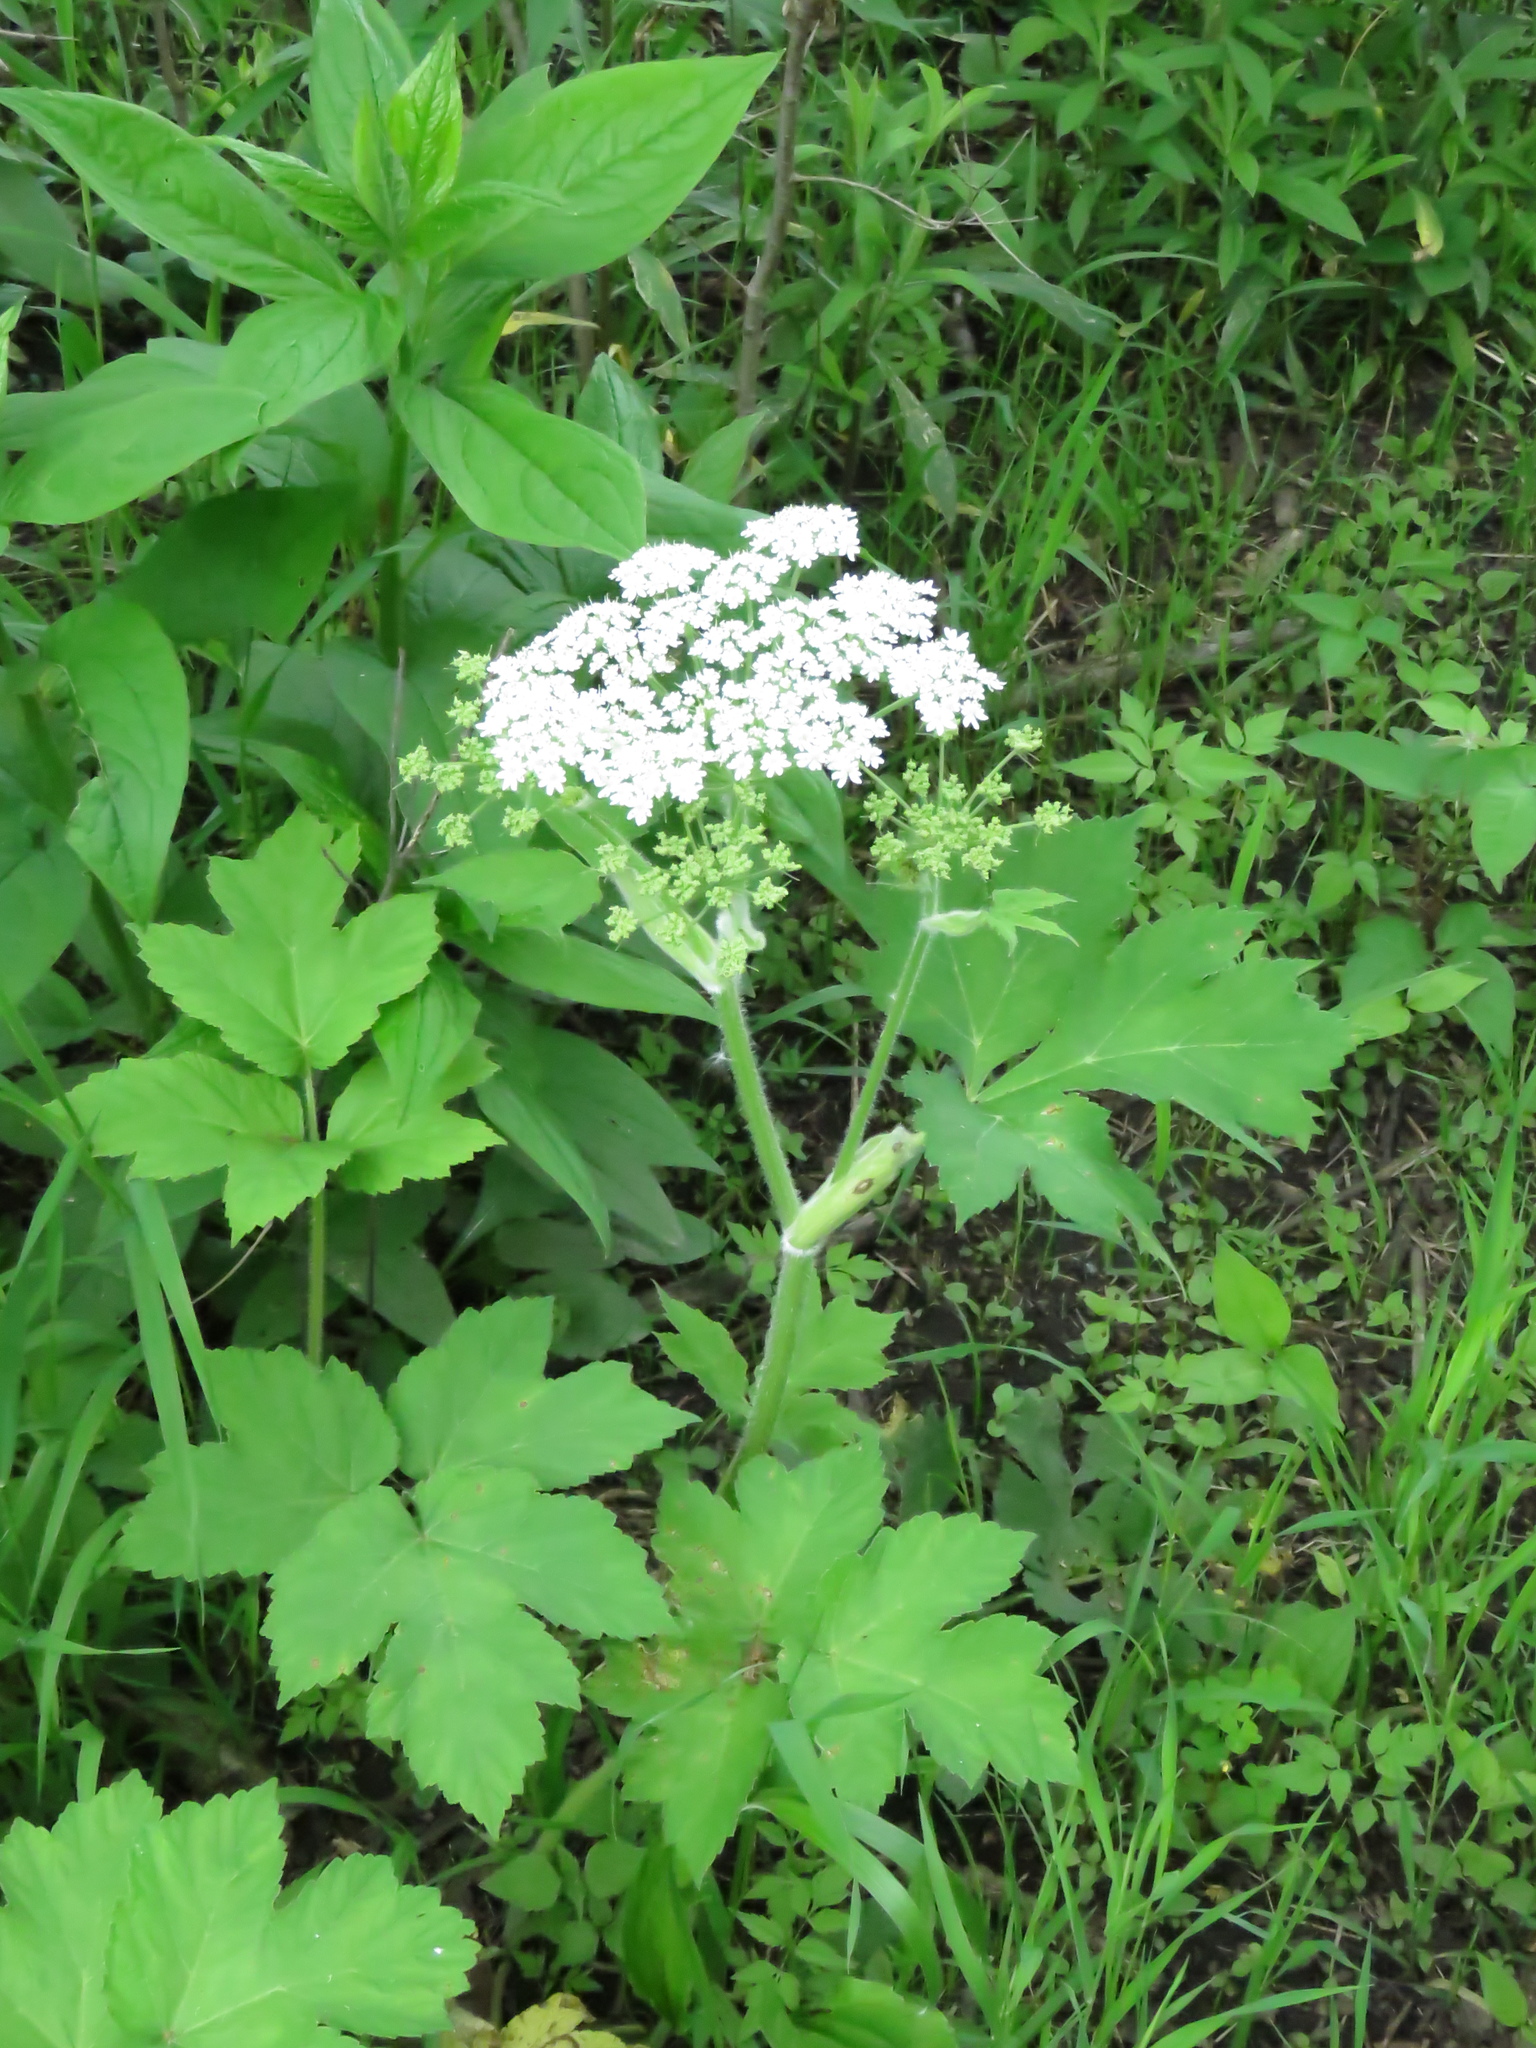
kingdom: Plantae
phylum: Tracheophyta
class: Magnoliopsida
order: Apiales
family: Apiaceae
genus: Heracleum
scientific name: Heracleum maximum
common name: American cow parsnip
